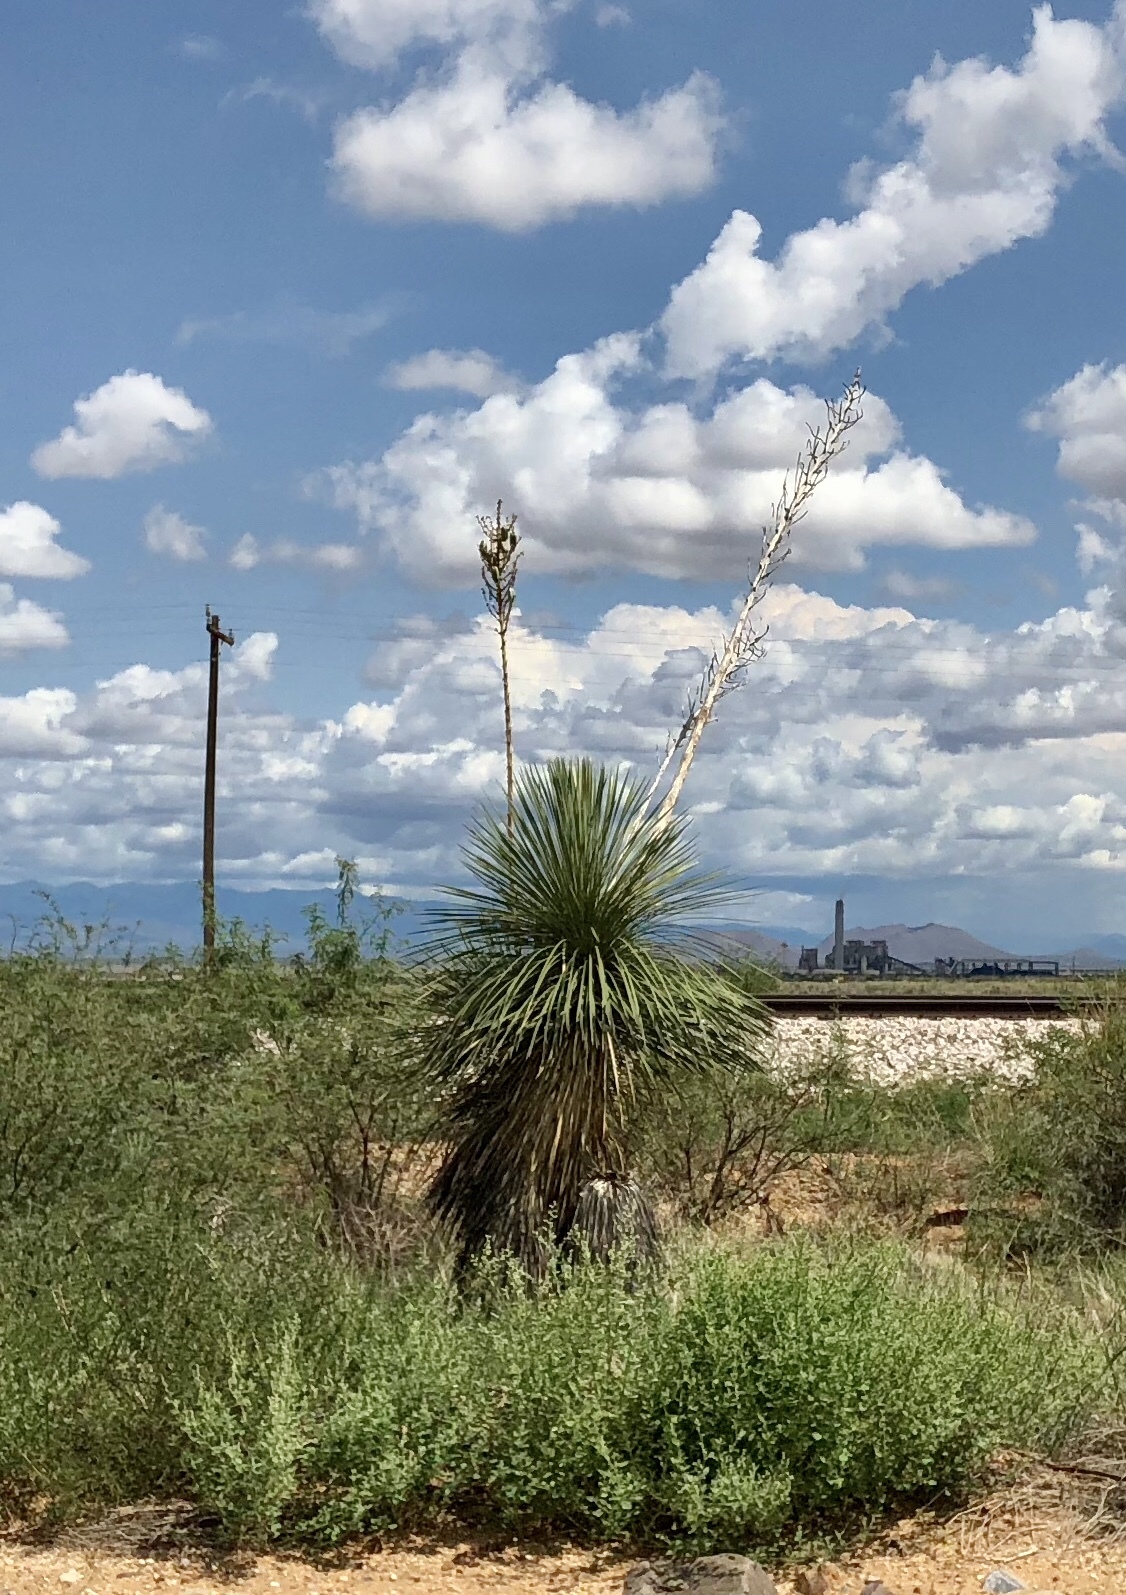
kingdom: Plantae
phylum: Tracheophyta
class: Liliopsida
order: Asparagales
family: Asparagaceae
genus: Yucca
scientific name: Yucca elata
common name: Palmella
